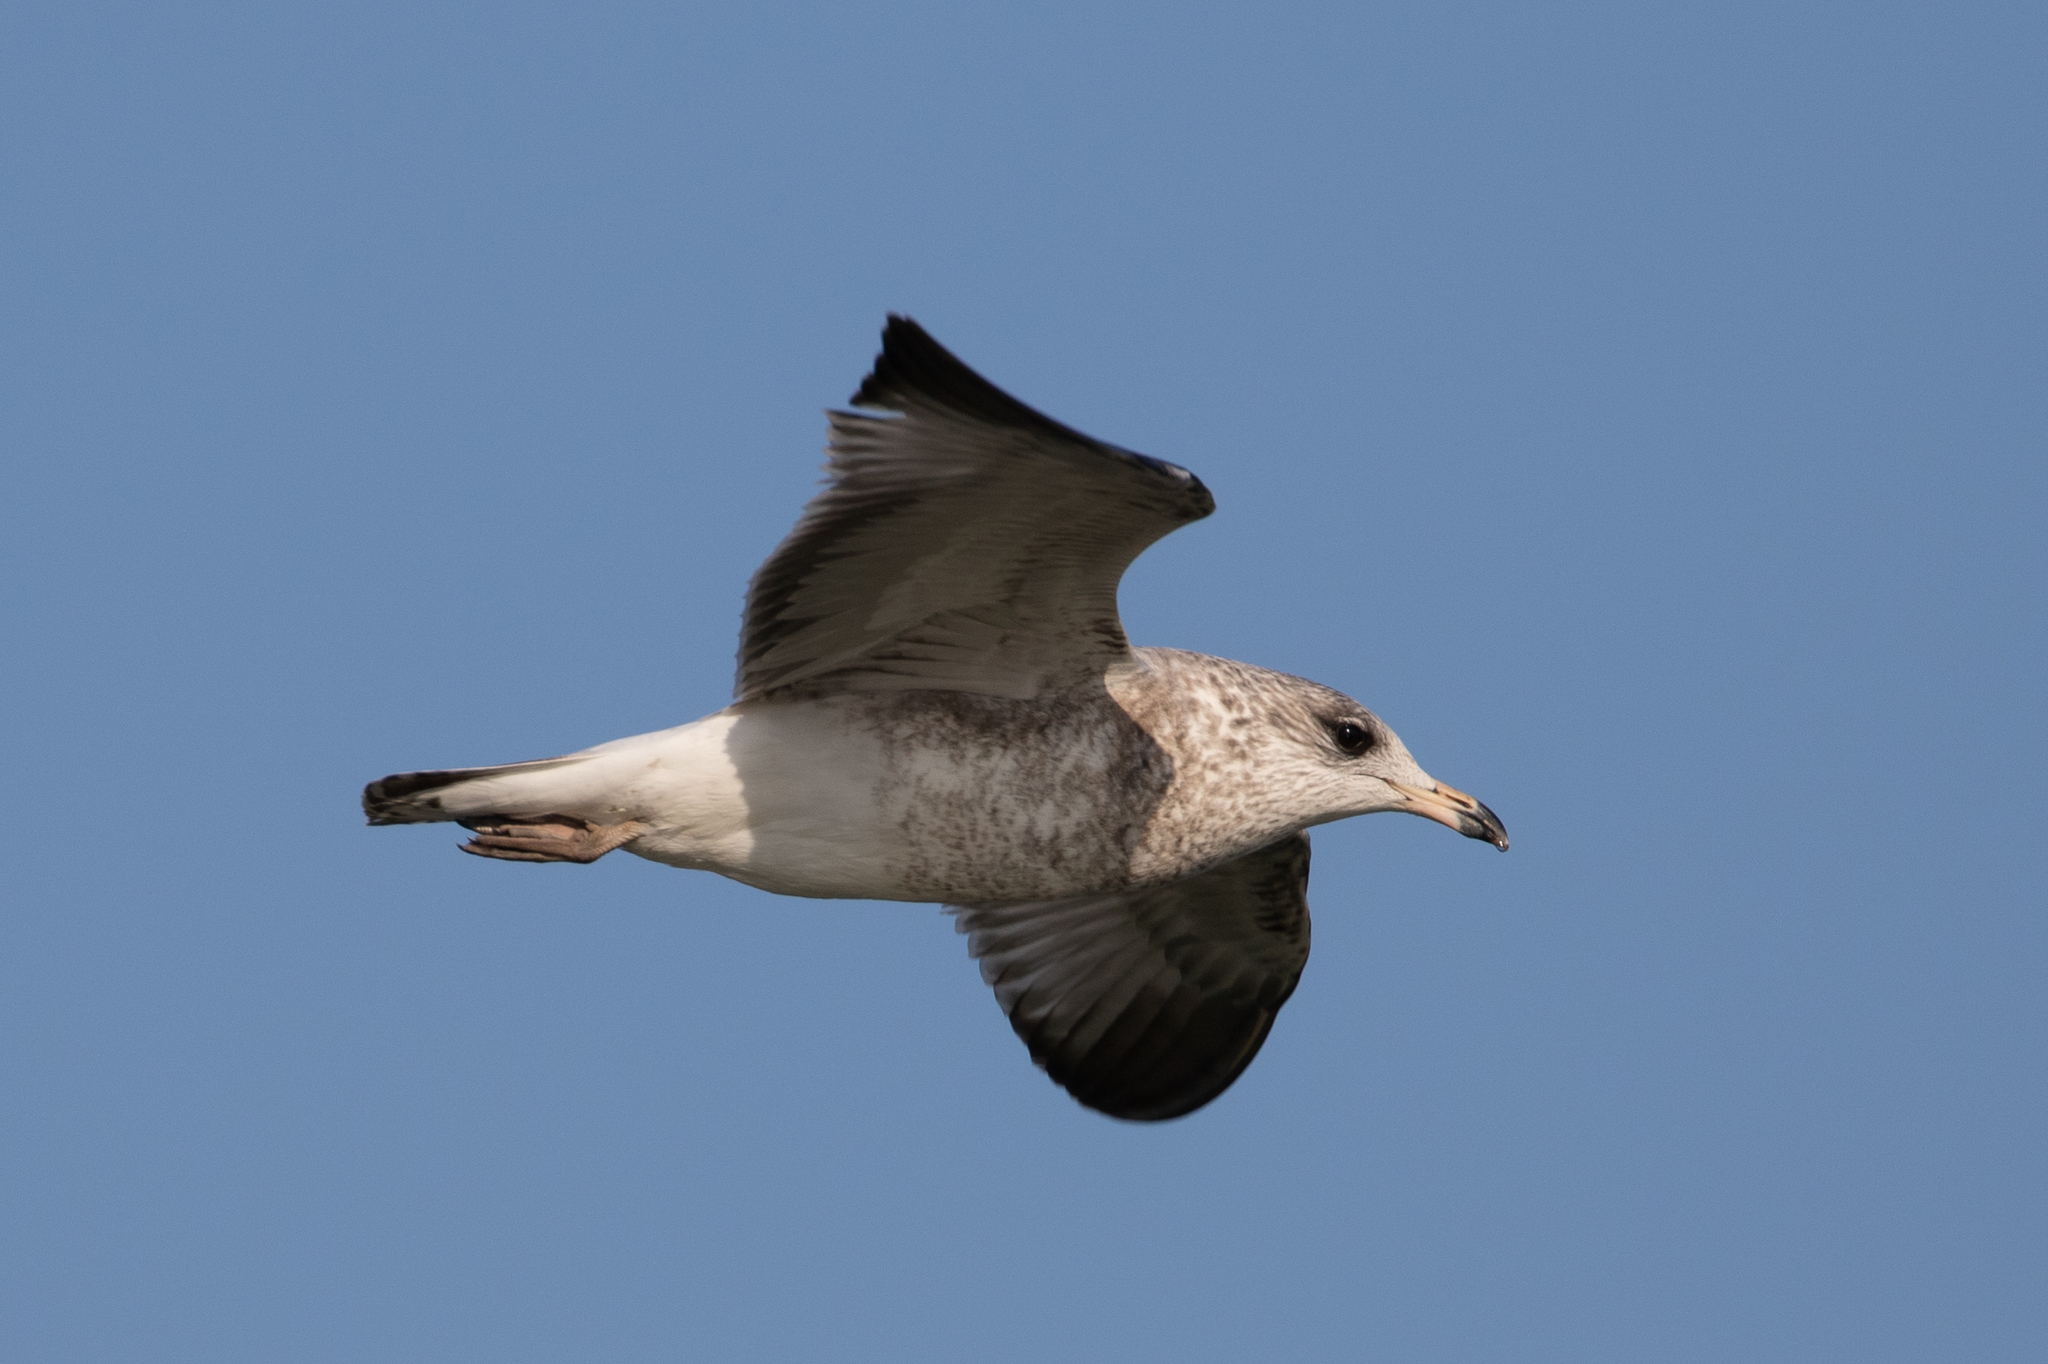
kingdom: Animalia
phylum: Chordata
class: Aves
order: Charadriiformes
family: Laridae
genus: Larus
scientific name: Larus delawarensis
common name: Ring-billed gull
